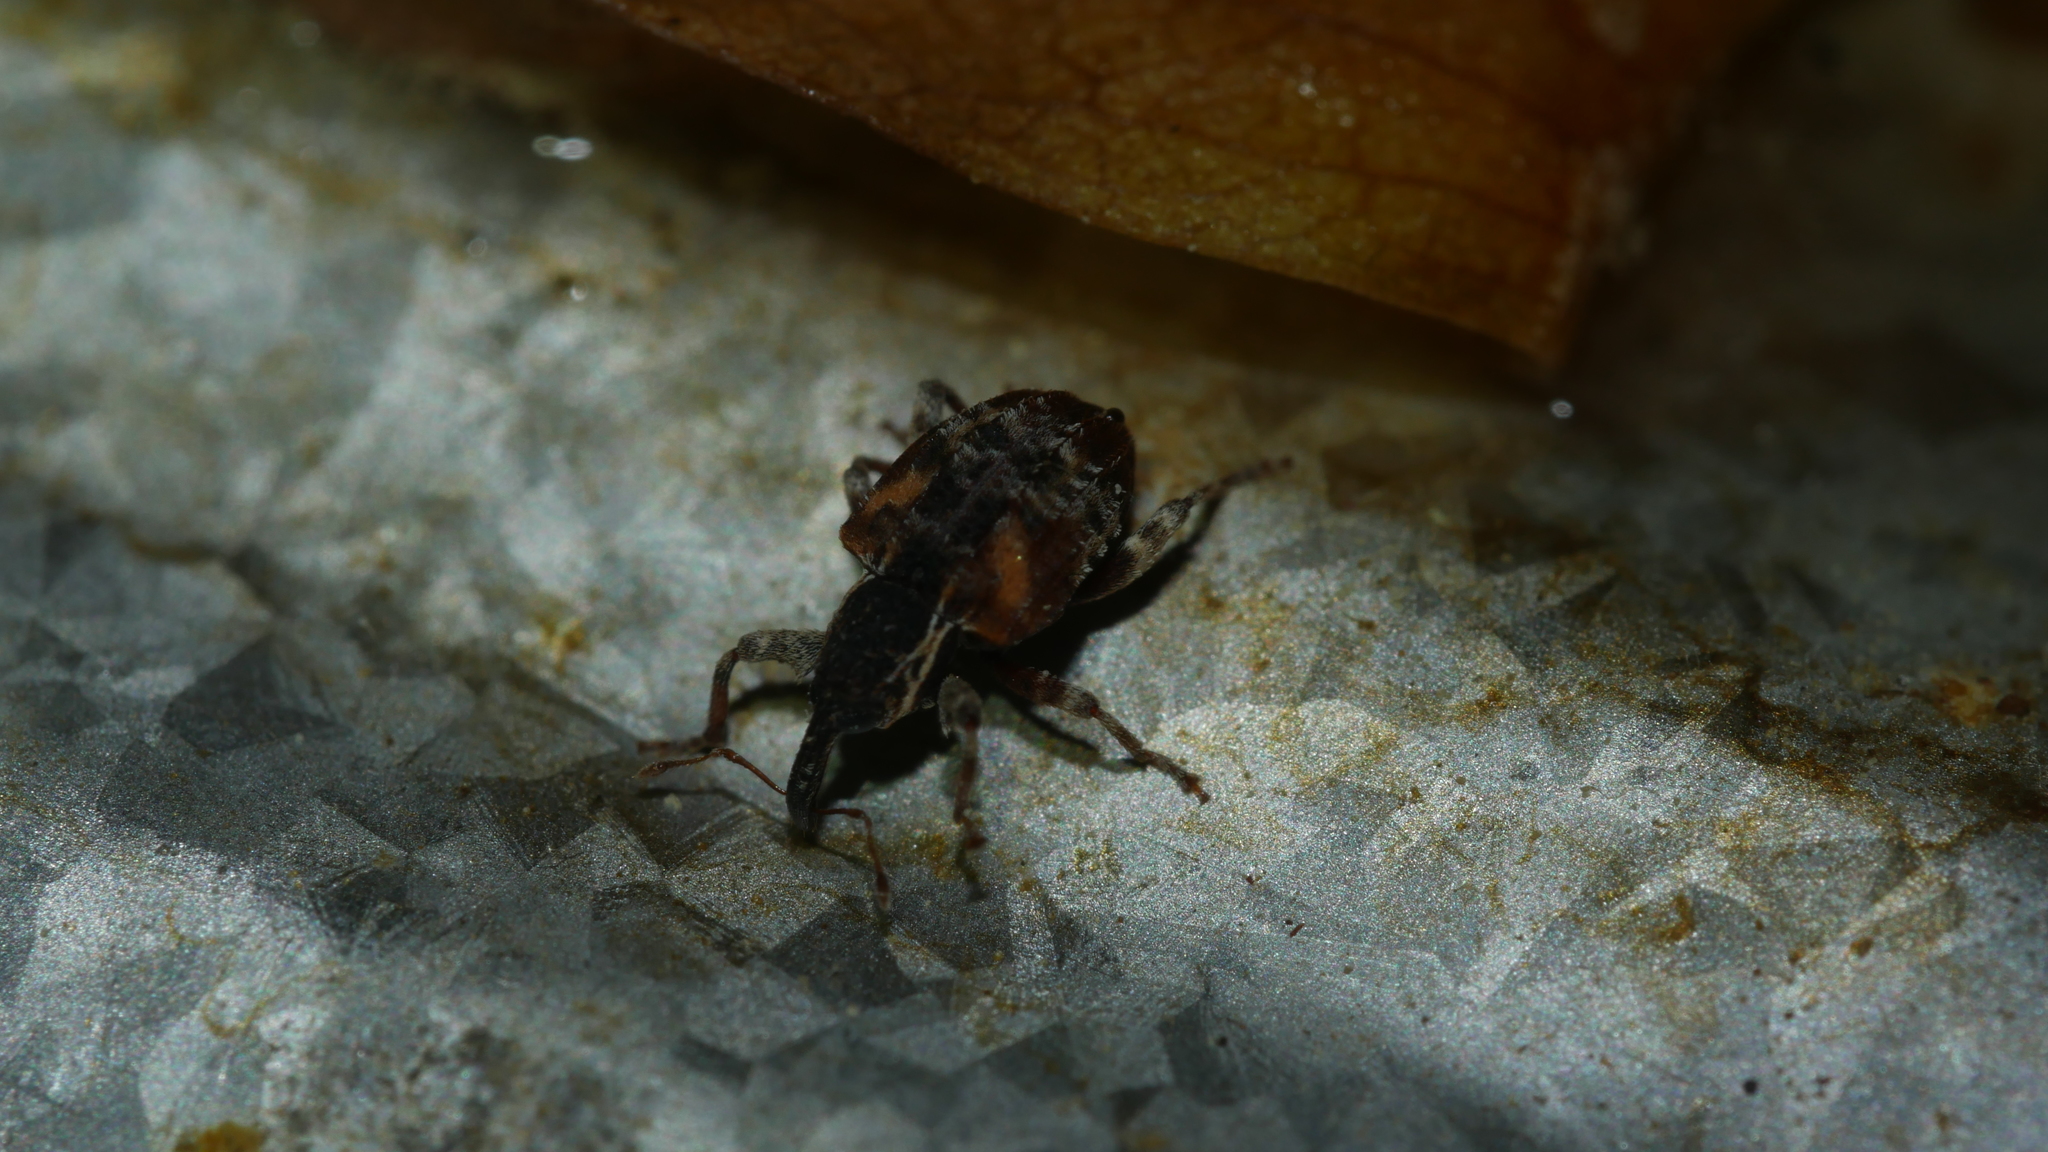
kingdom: Animalia
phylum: Arthropoda
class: Insecta
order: Coleoptera
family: Curculionidae
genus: Conotrachelus
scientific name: Conotrachelus anaglypticus
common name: Cambium curculio
